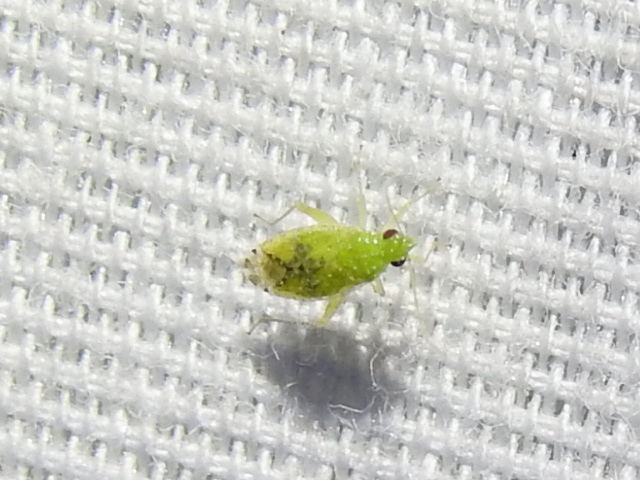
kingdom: Animalia
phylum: Arthropoda
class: Insecta
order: Hemiptera
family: Miridae
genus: Keltonia
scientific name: Keltonia tuckeri
